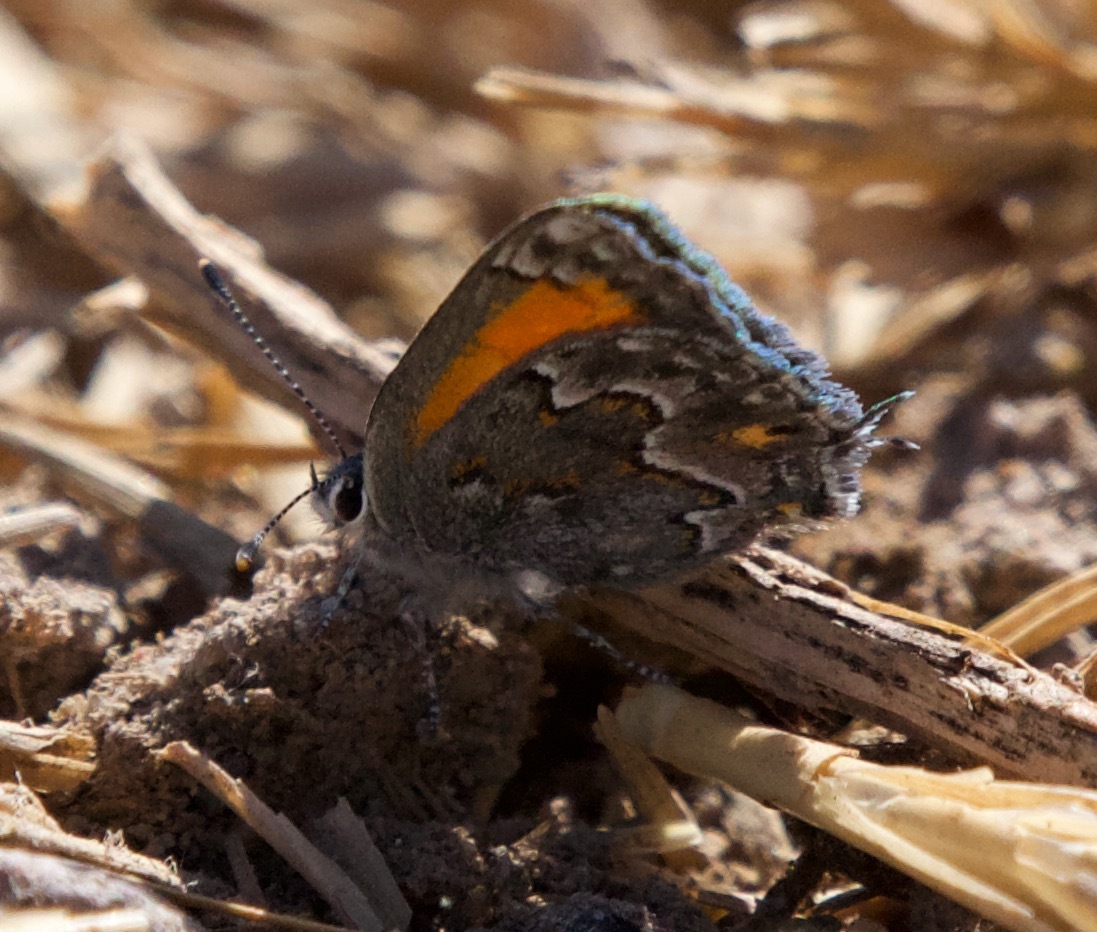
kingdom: Animalia
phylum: Arthropoda
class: Insecta
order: Lepidoptera
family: Lycaenidae
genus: Strymon
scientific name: Strymon
